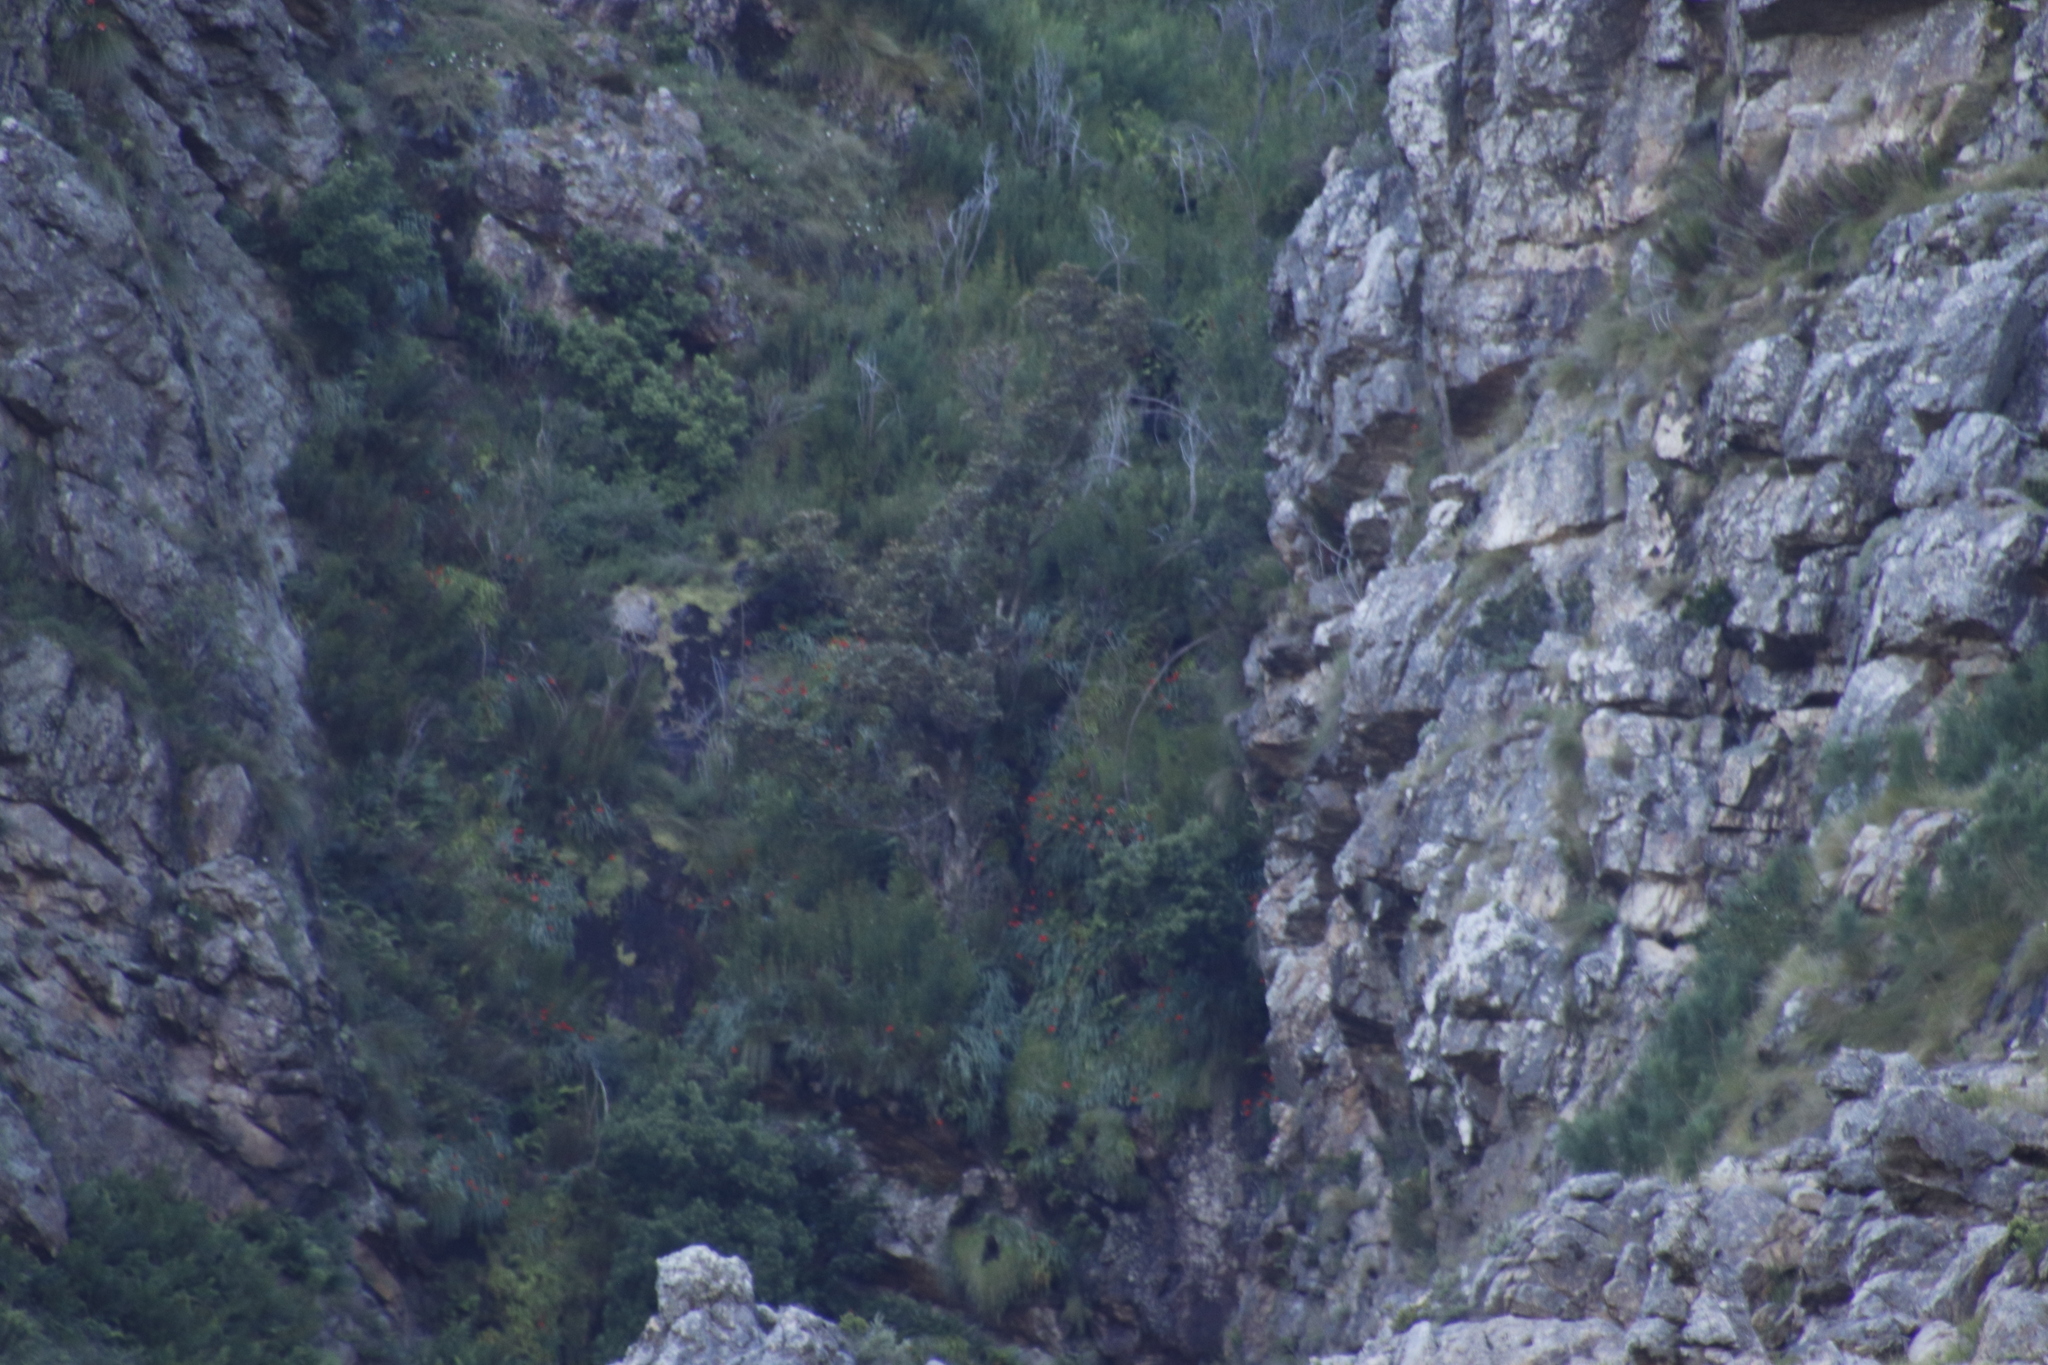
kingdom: Plantae
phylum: Tracheophyta
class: Liliopsida
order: Asparagales
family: Iridaceae
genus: Gladiolus
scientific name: Gladiolus cardinalis
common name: New year-lily
